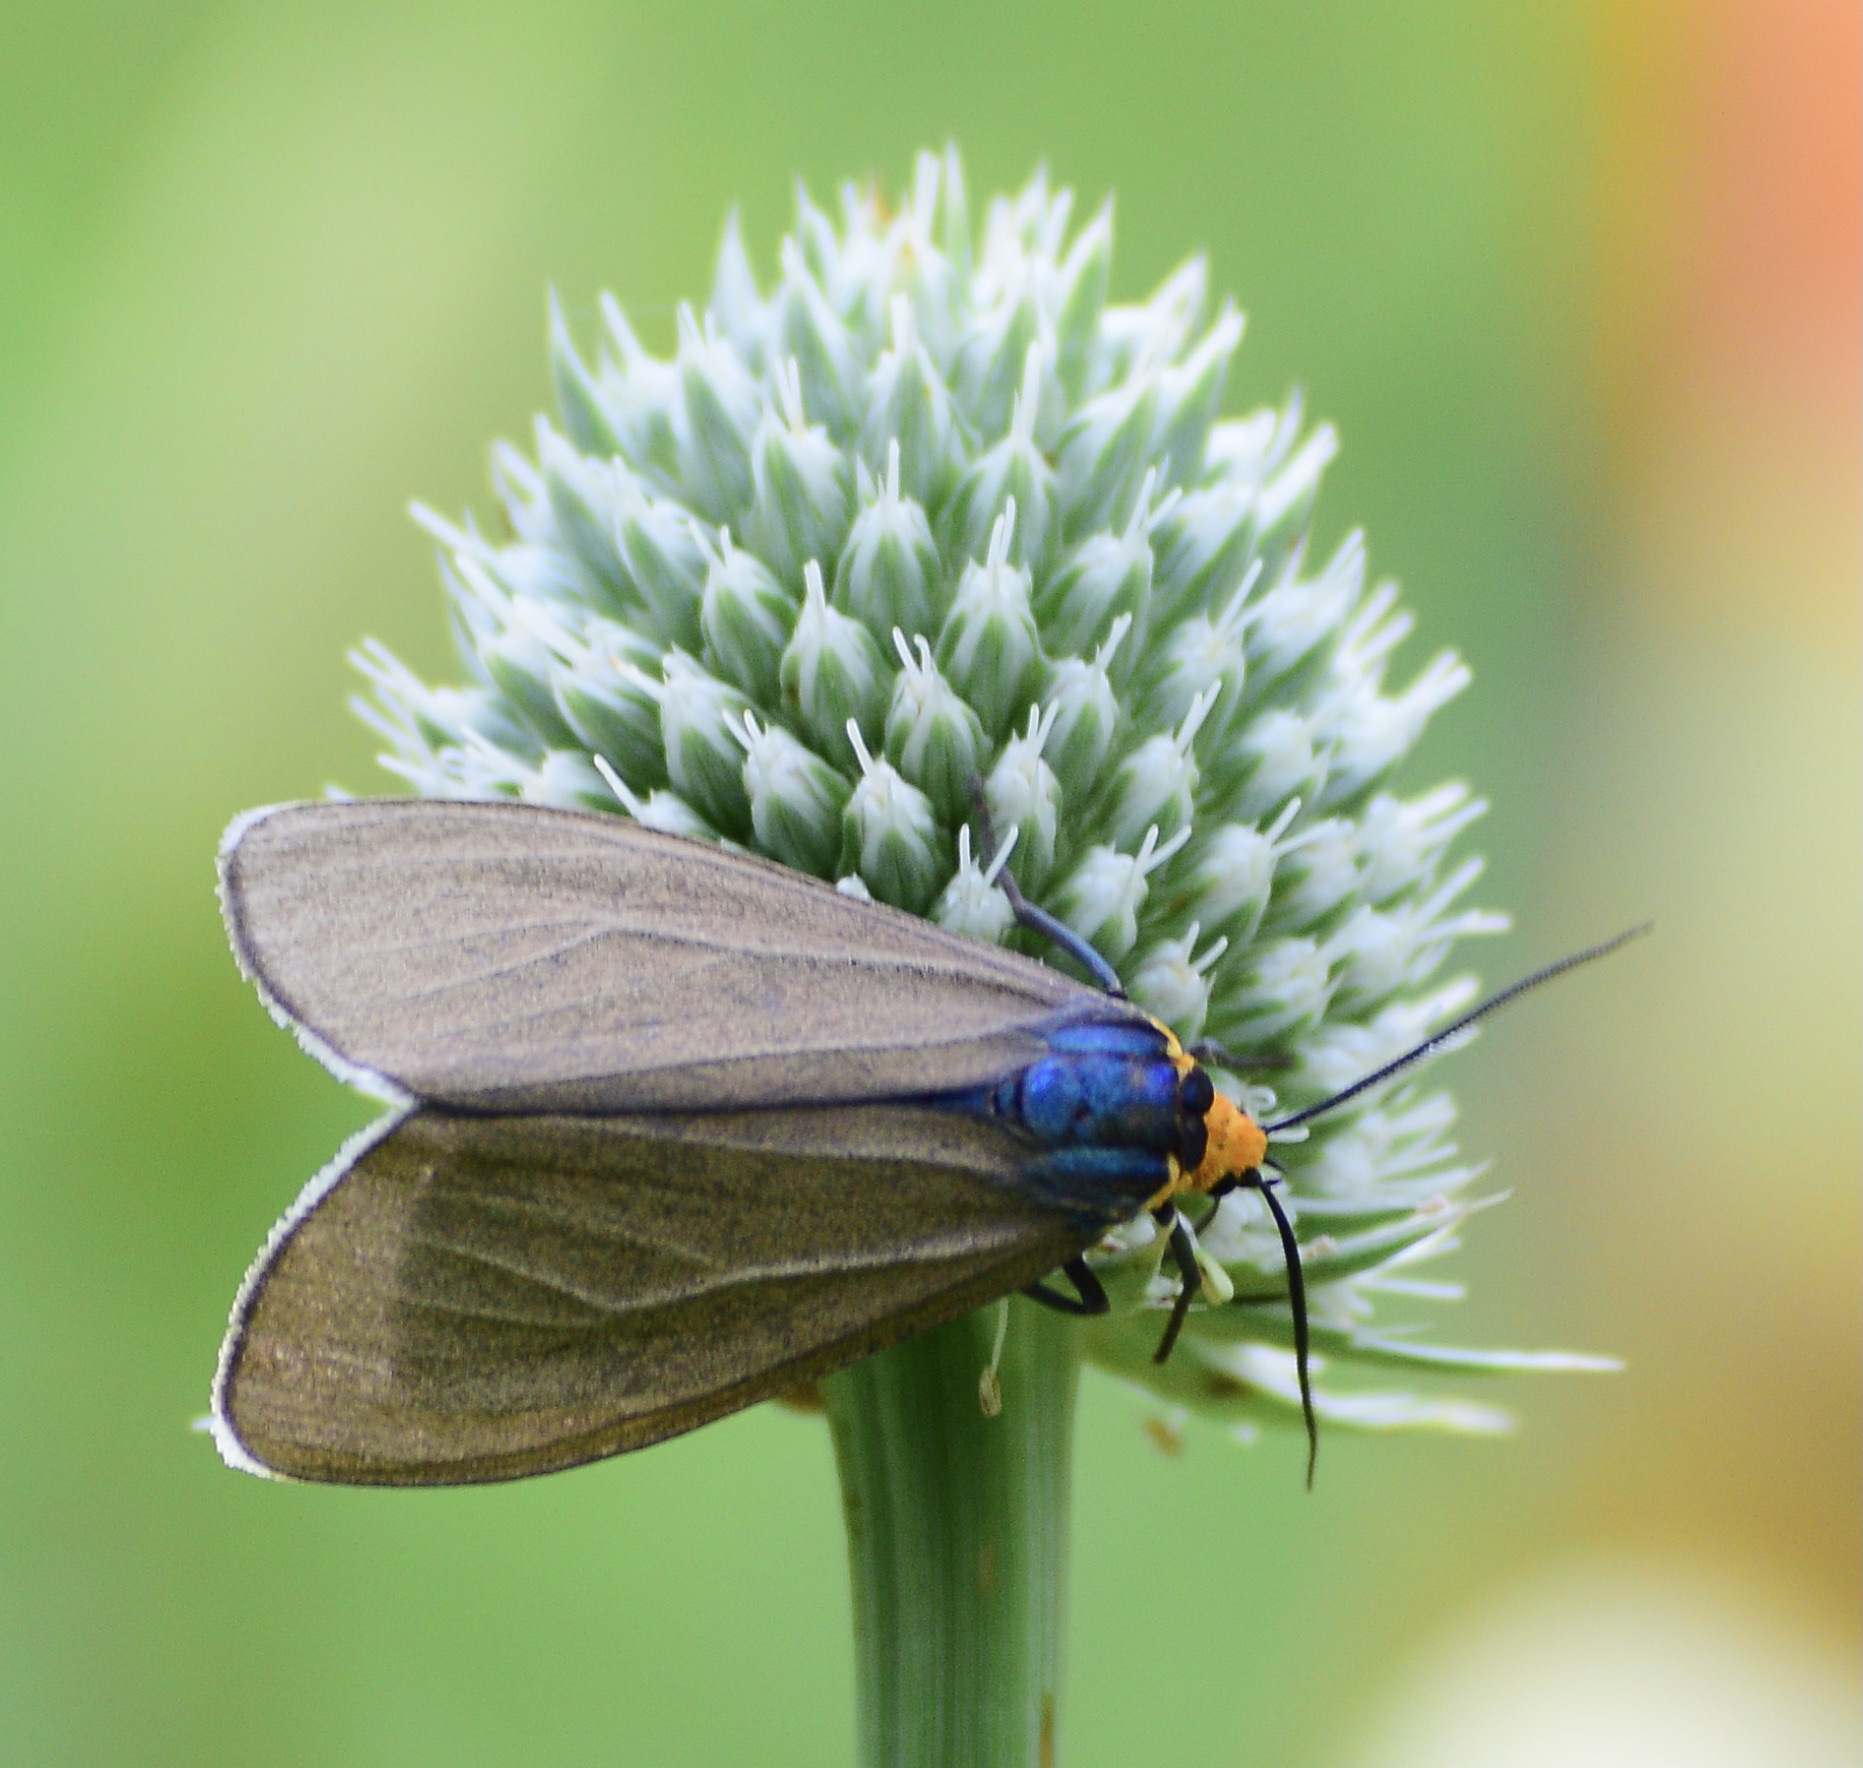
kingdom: Animalia
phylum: Arthropoda
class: Insecta
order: Lepidoptera
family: Erebidae
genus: Ctenucha
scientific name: Ctenucha virginica
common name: Virginia ctenucha moth
